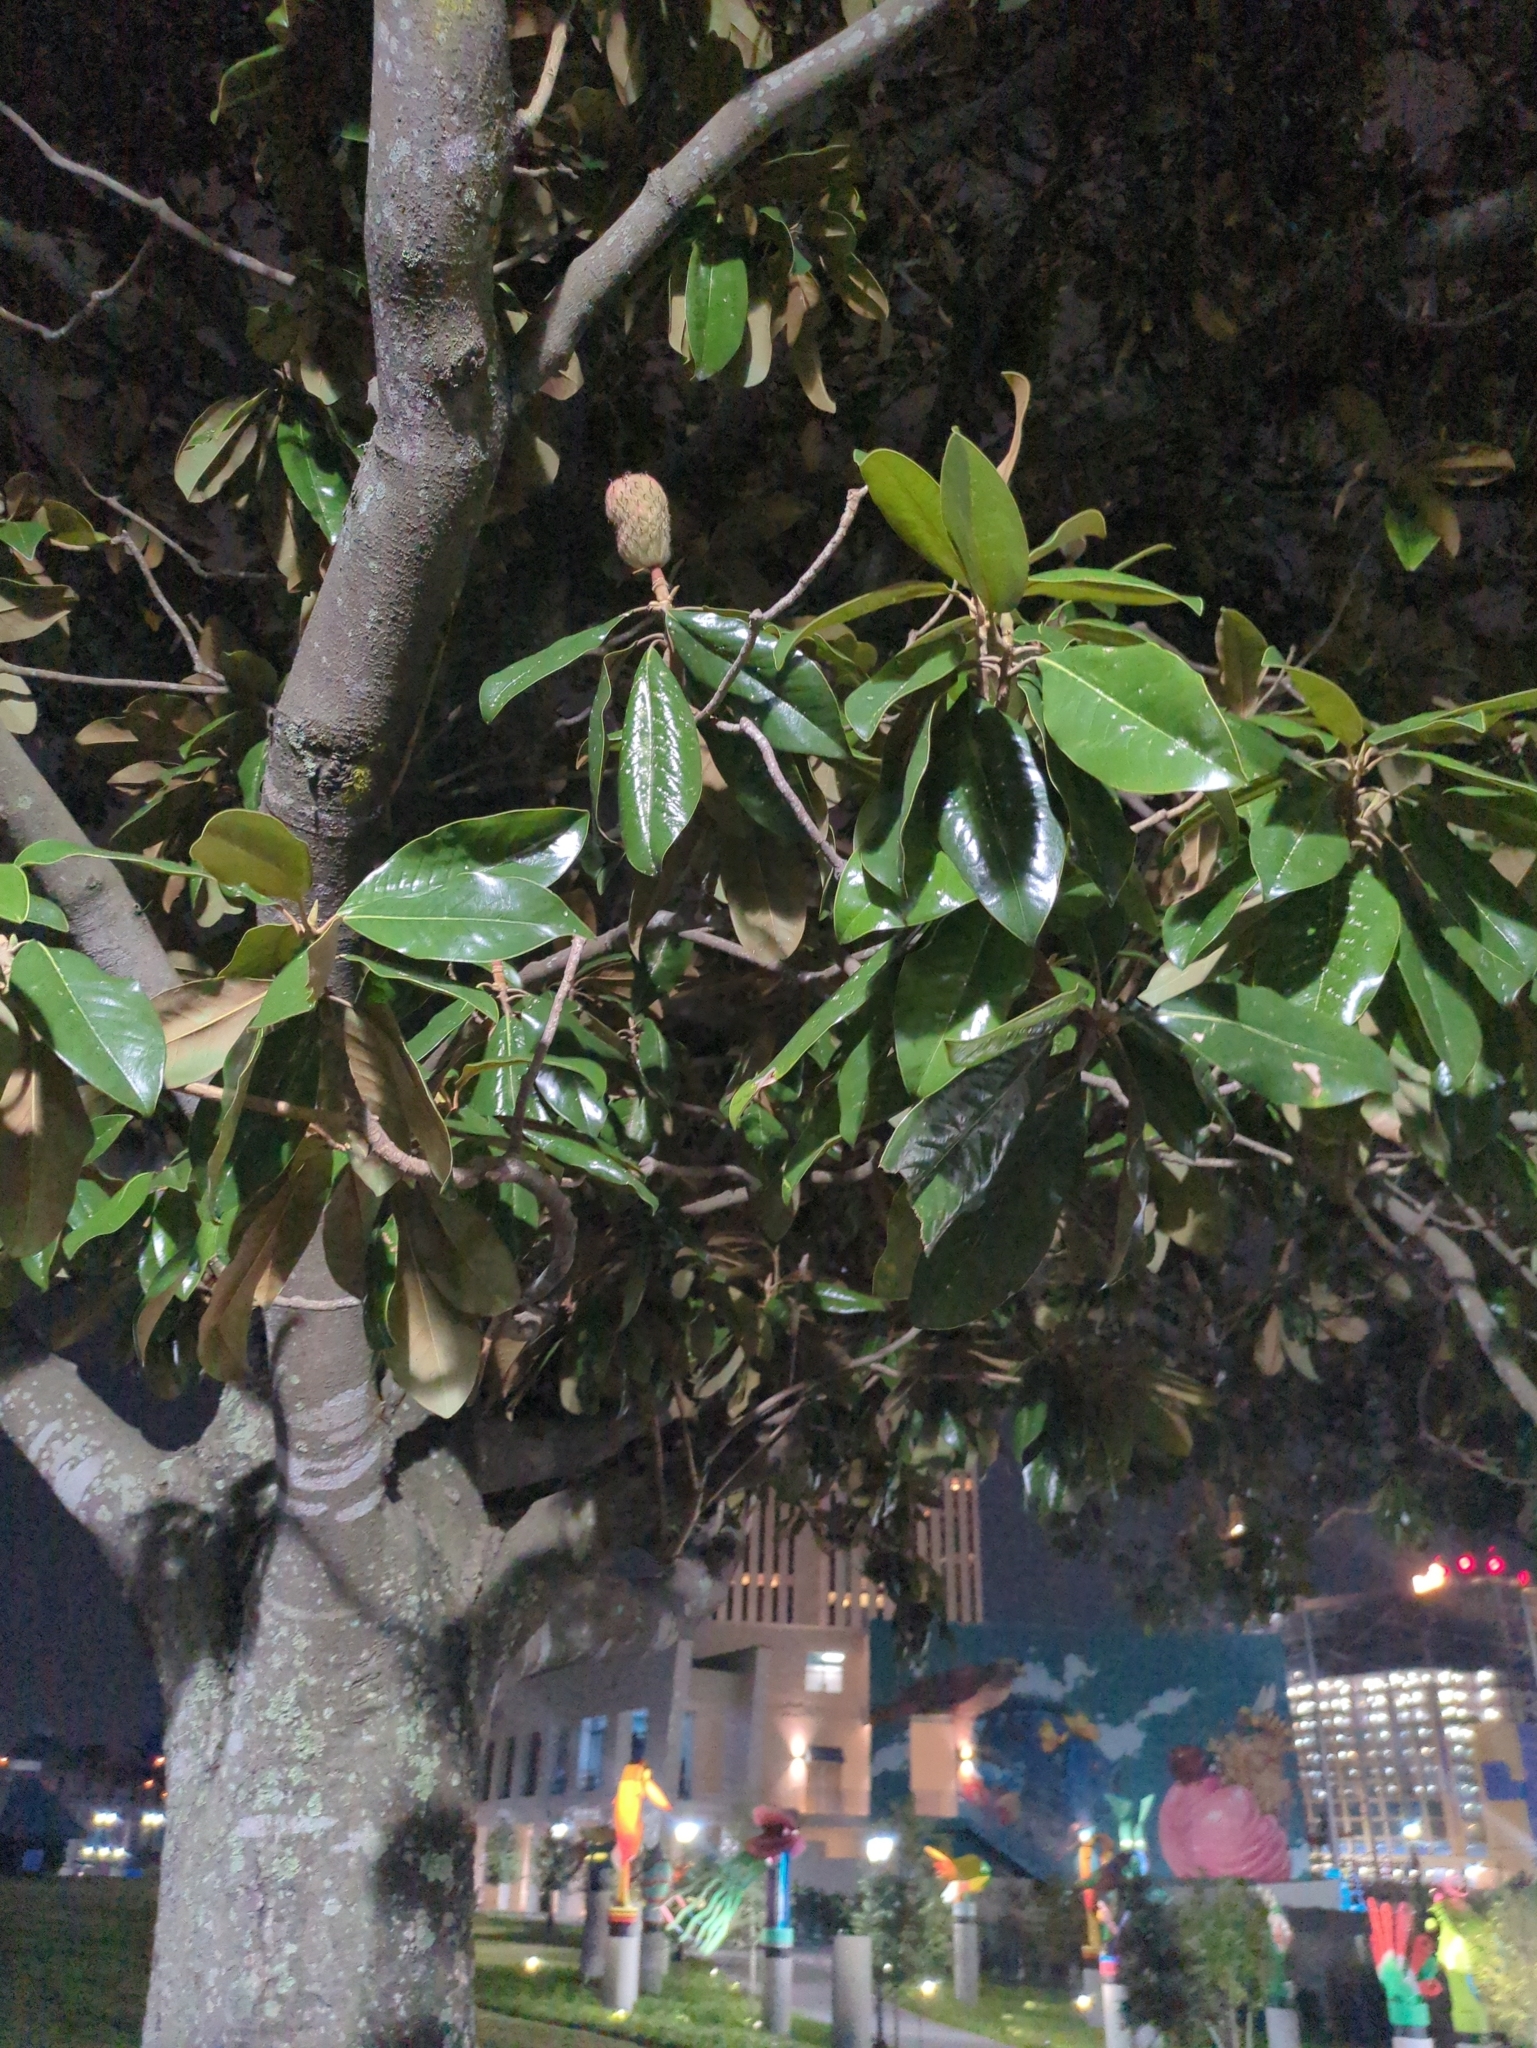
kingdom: Plantae
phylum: Tracheophyta
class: Magnoliopsida
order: Magnoliales
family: Magnoliaceae
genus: Magnolia
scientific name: Magnolia grandiflora
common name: Southern magnolia
